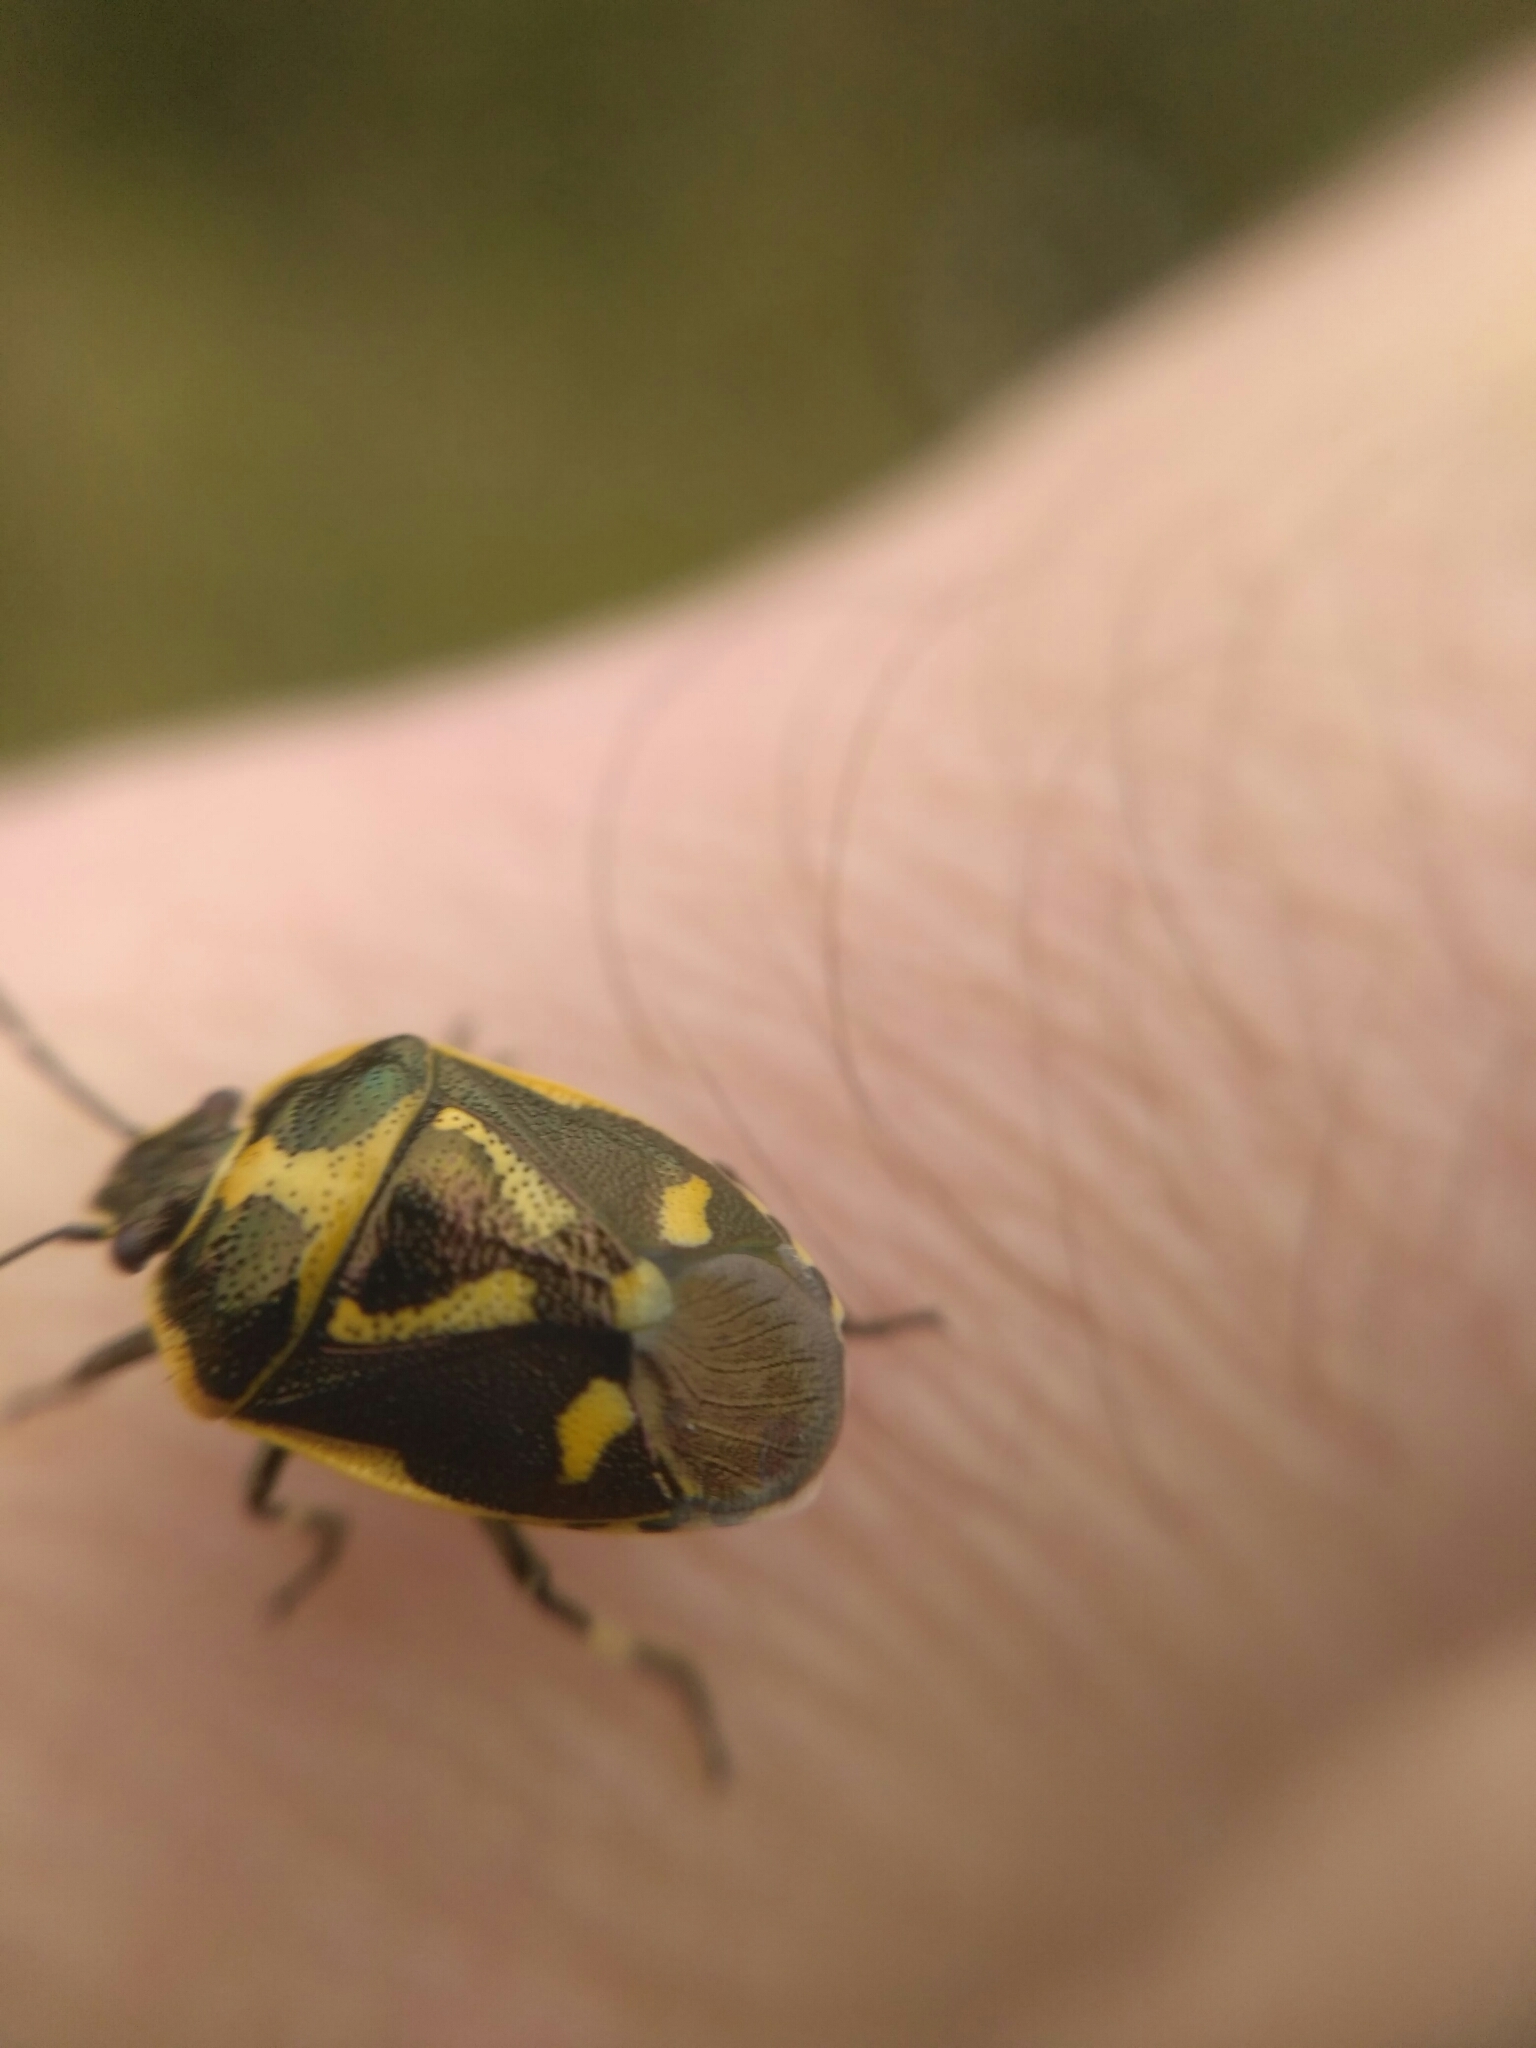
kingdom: Animalia
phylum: Arthropoda
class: Insecta
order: Hemiptera
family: Pentatomidae
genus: Eurydema
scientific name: Eurydema oleracea
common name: Cabbage bug
